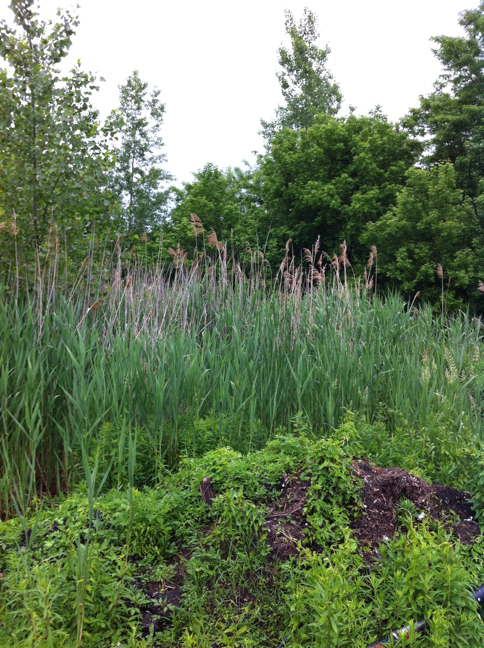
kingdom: Plantae
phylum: Tracheophyta
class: Liliopsida
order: Poales
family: Poaceae
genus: Phragmites
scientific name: Phragmites australis
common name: Common reed
